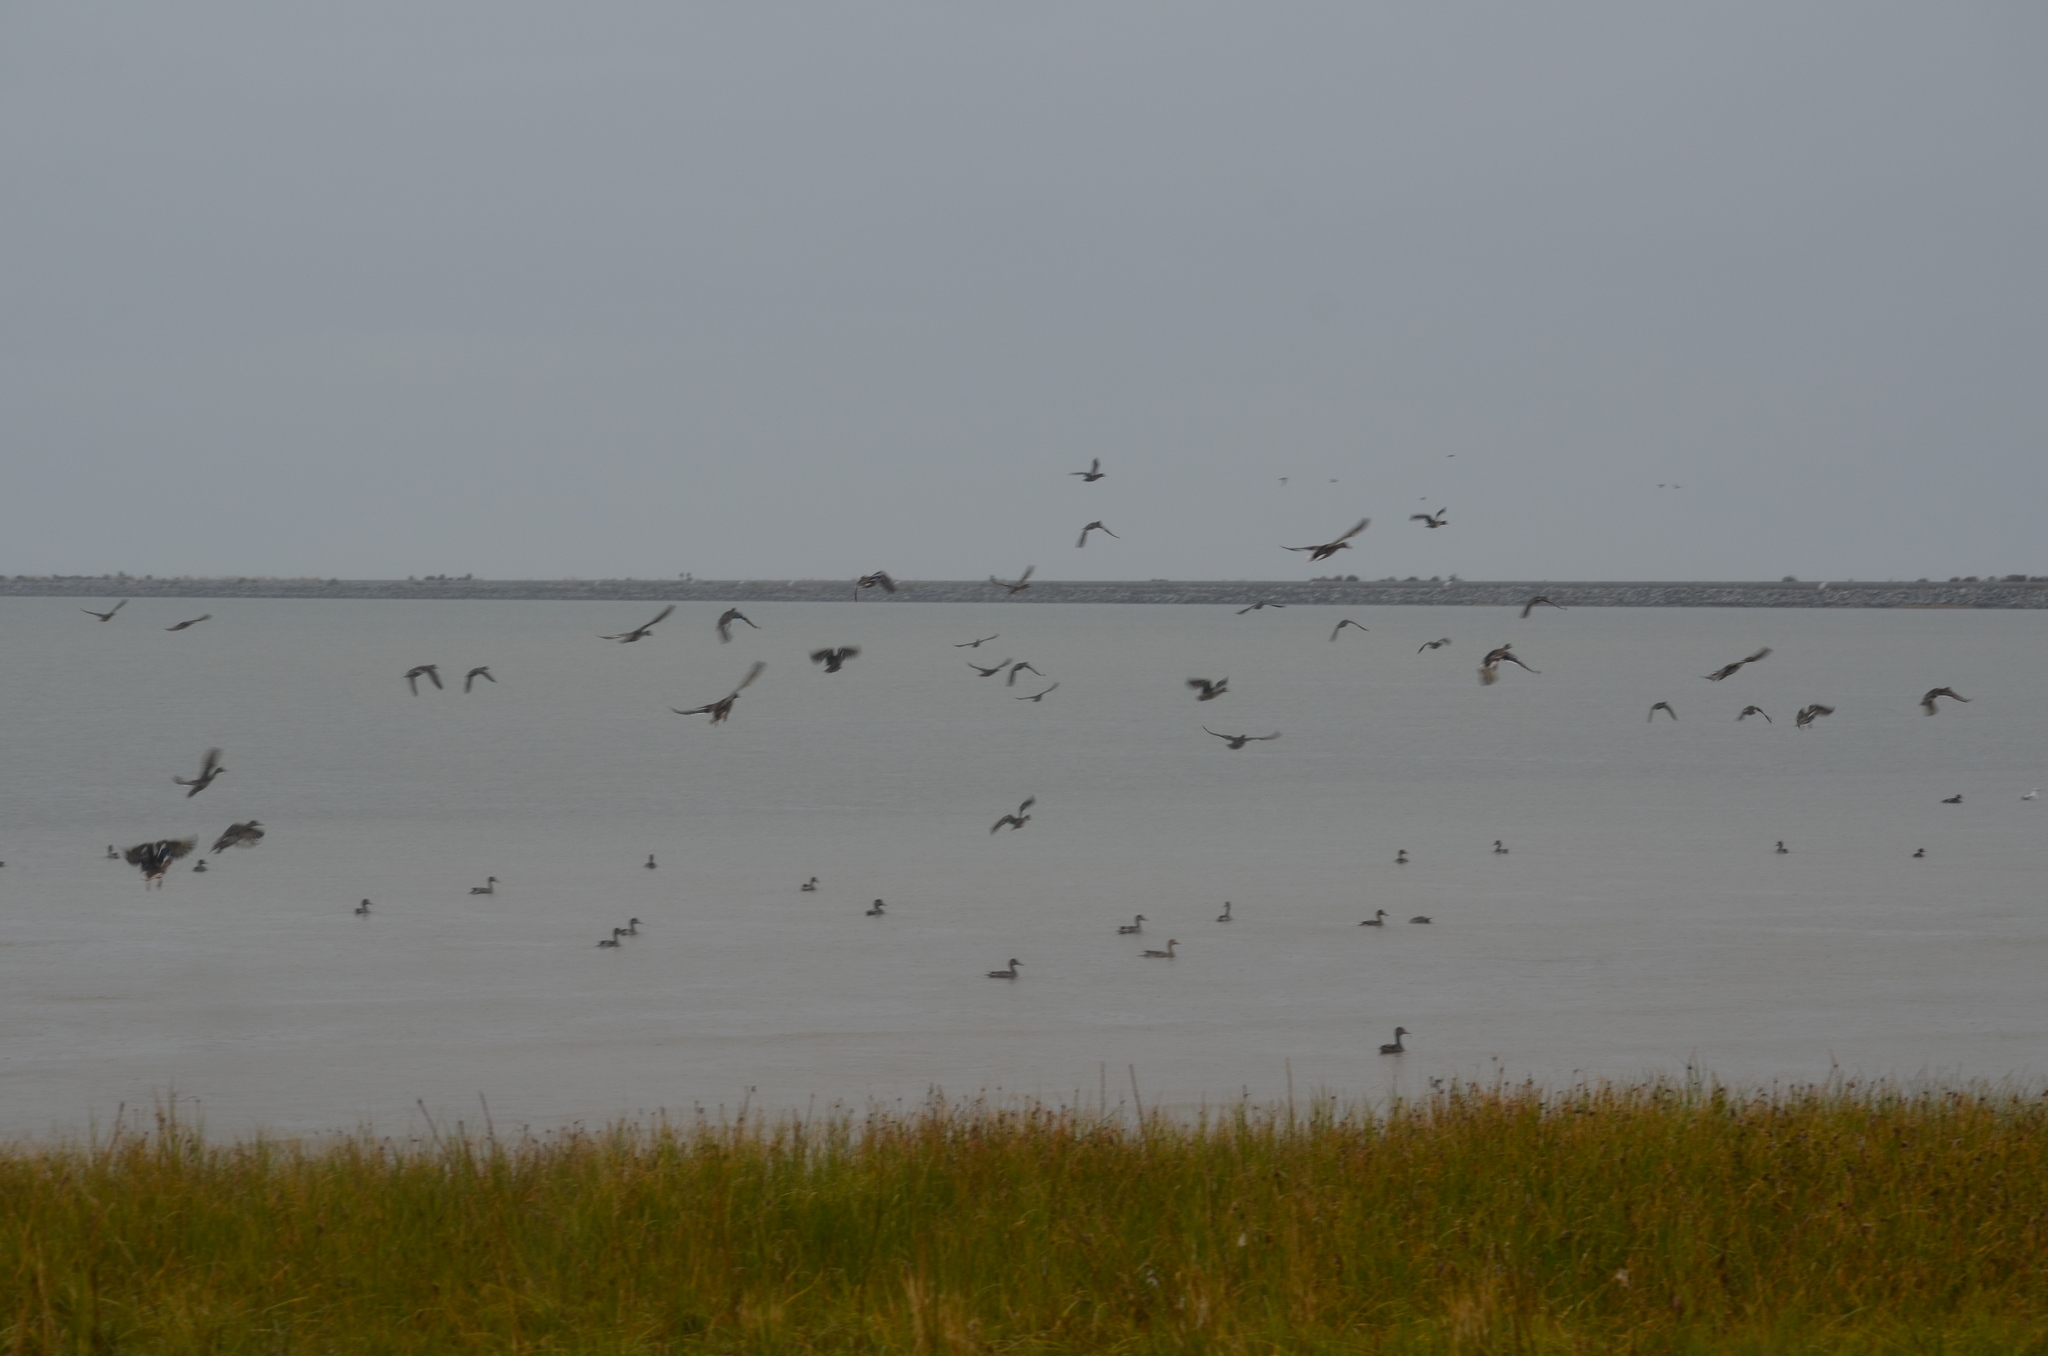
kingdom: Animalia
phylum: Chordata
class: Aves
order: Anseriformes
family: Anatidae
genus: Anas
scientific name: Anas platyrhynchos
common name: Mallard
